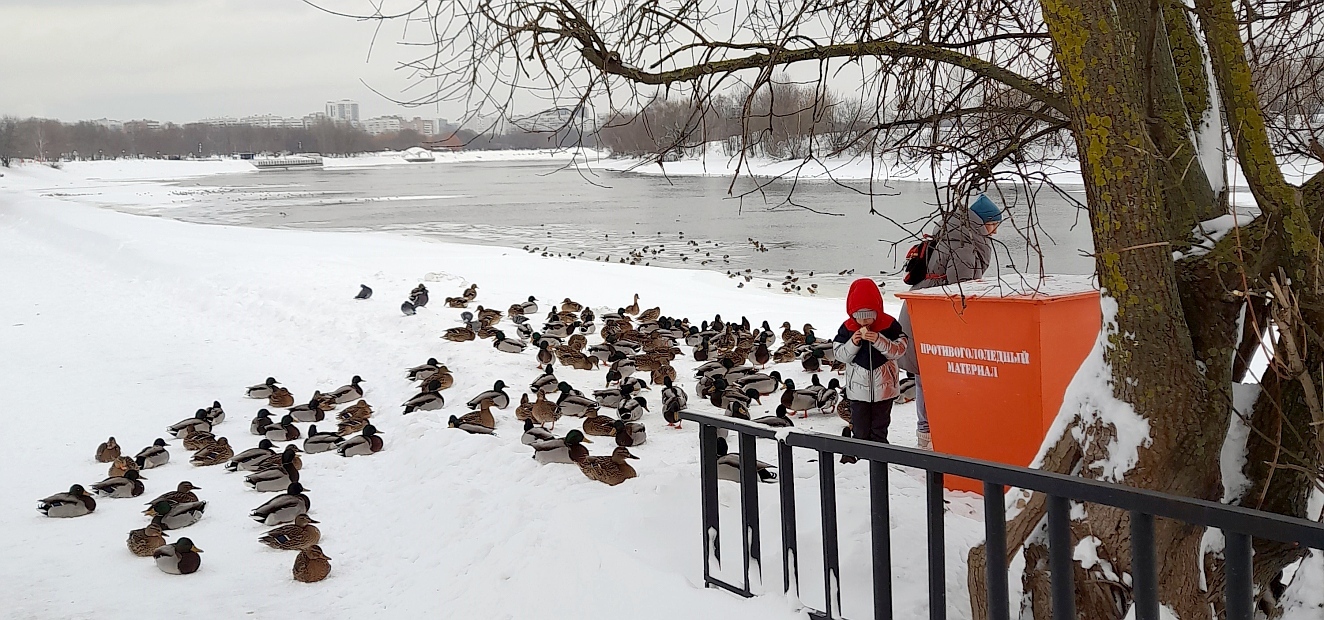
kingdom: Animalia
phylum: Chordata
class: Aves
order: Anseriformes
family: Anatidae
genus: Anas
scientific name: Anas platyrhynchos
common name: Mallard
